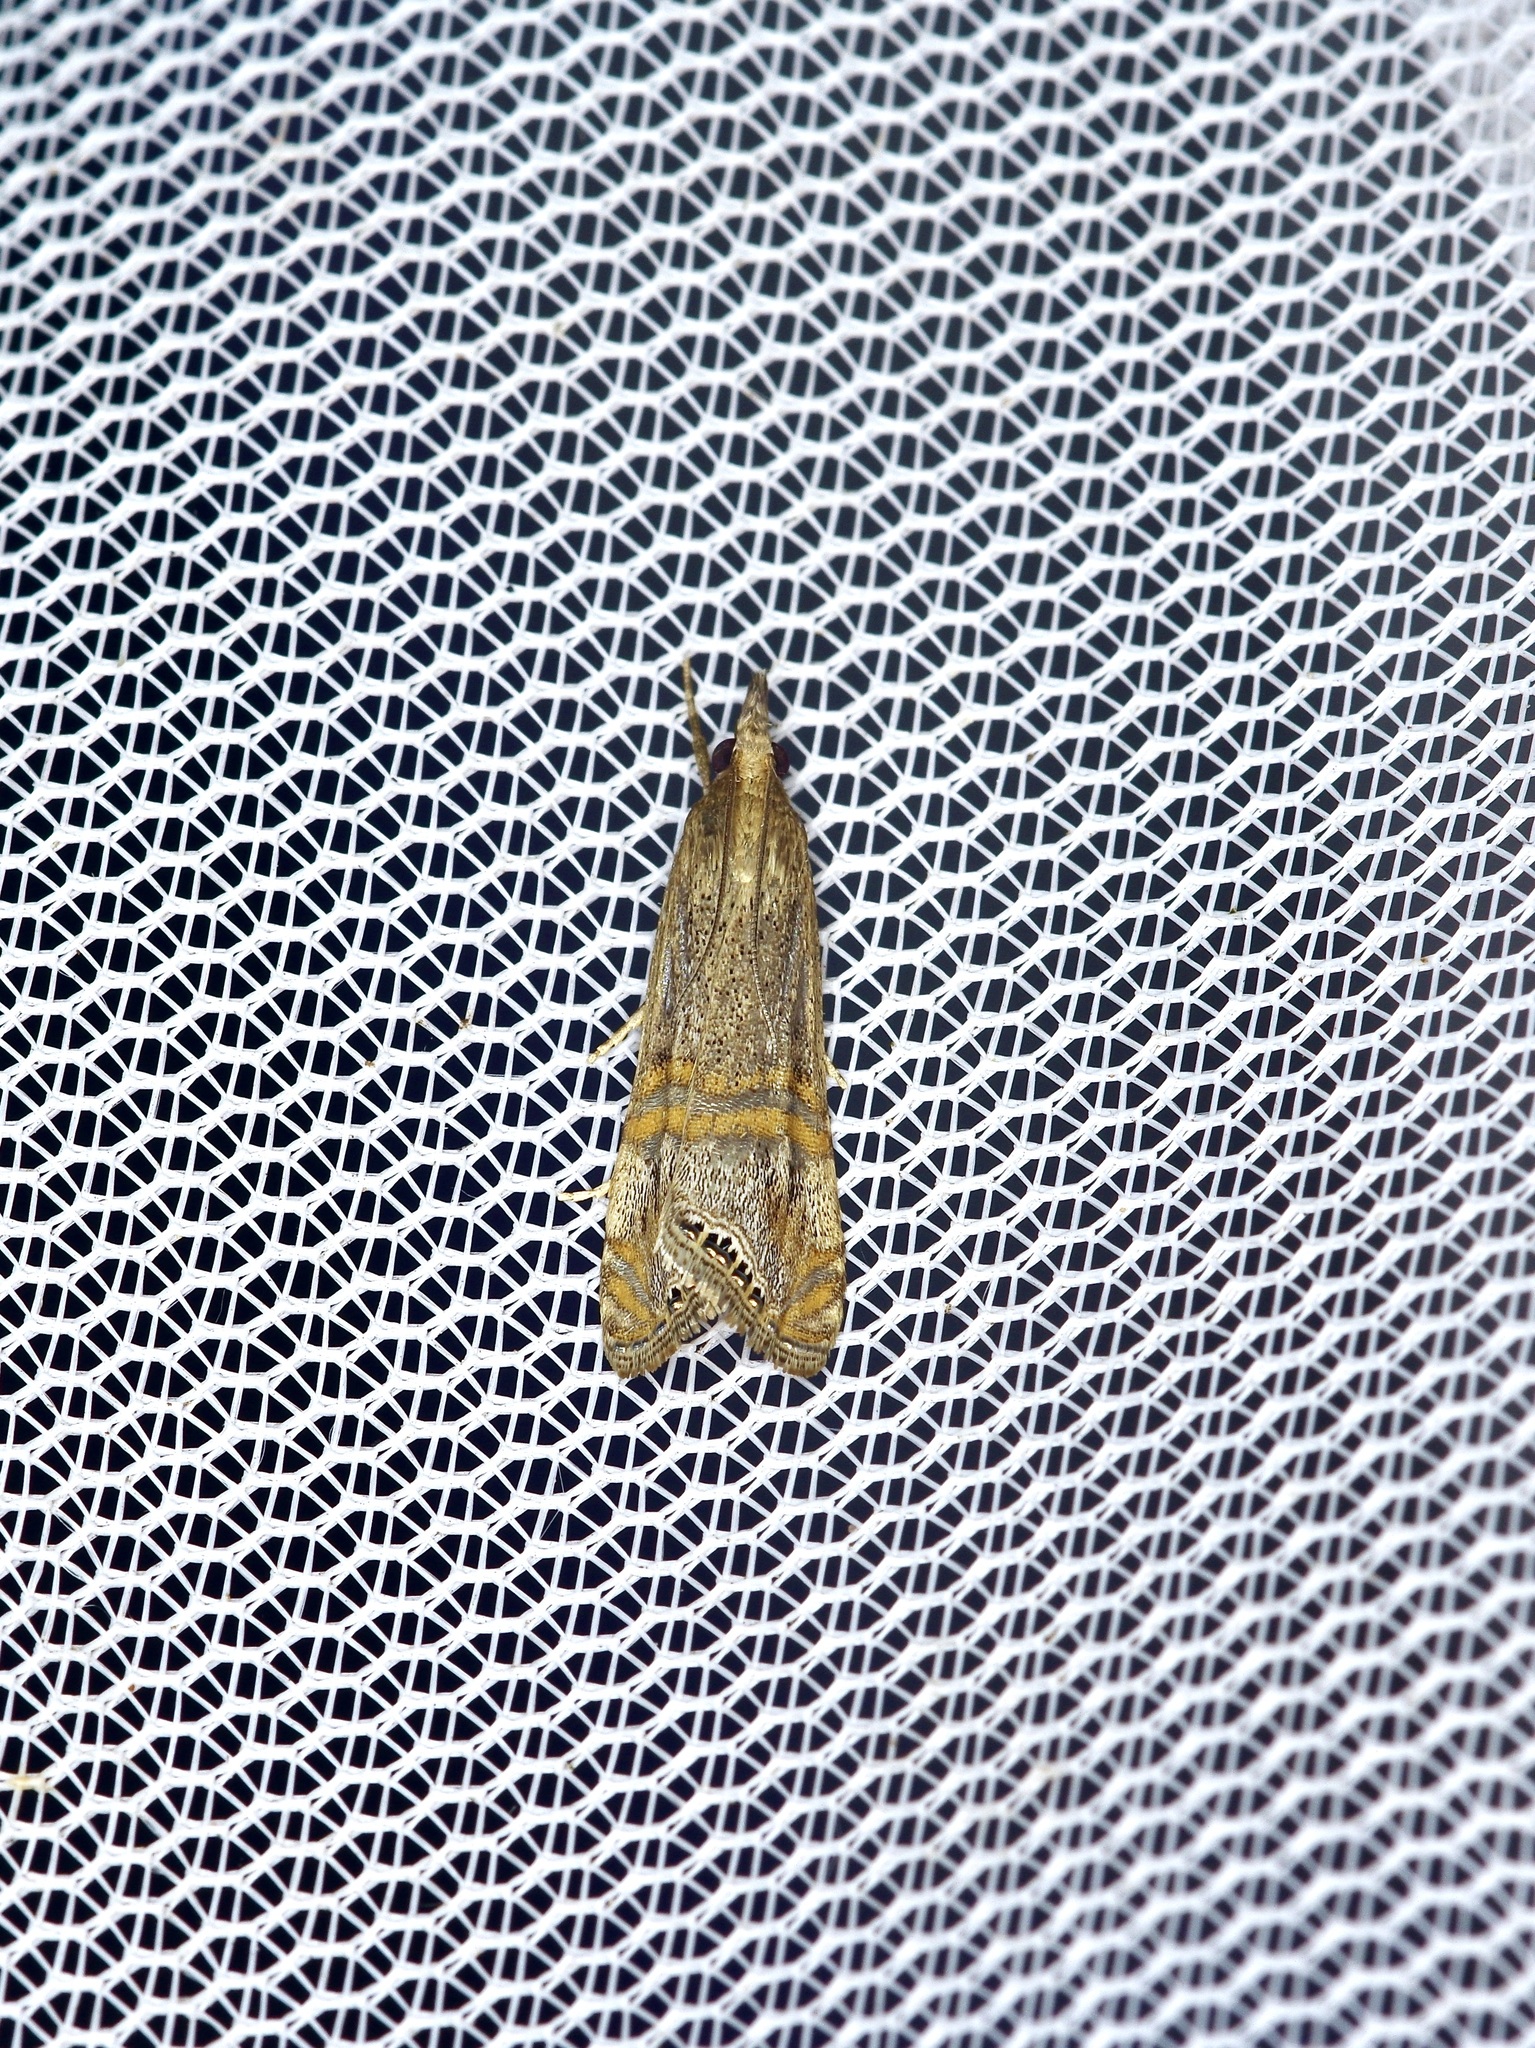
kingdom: Animalia
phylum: Arthropoda
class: Insecta
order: Lepidoptera
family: Crambidae
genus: Euchromius
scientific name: Euchromius ocellea
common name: Necklace veneer moth
